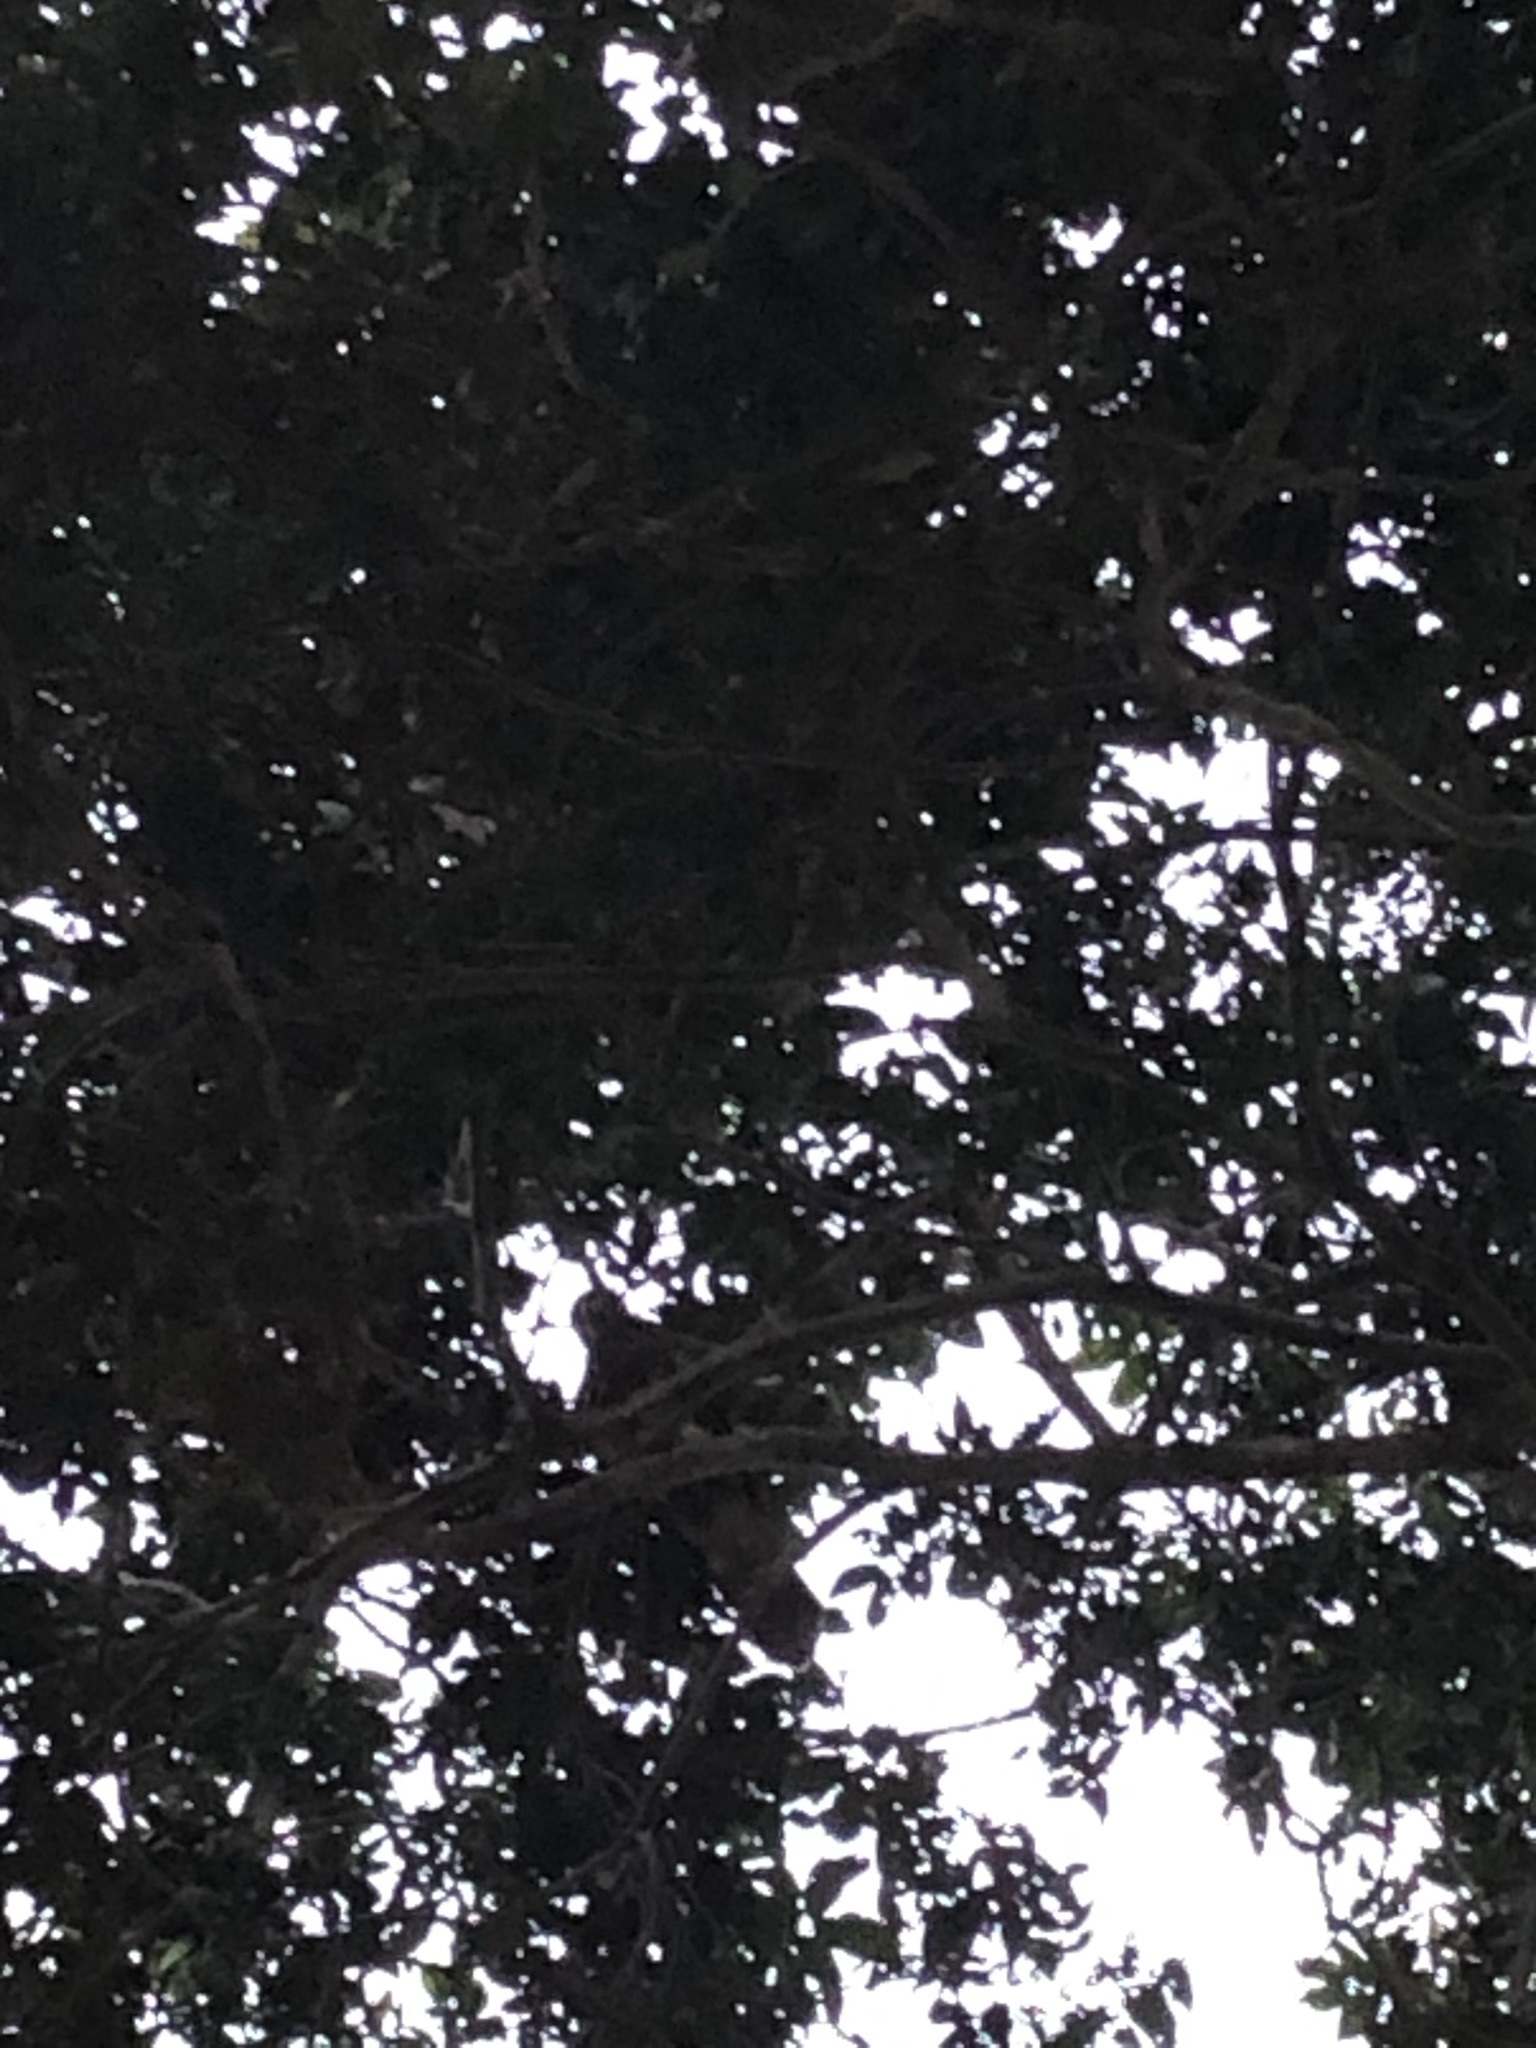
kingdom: Animalia
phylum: Chordata
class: Aves
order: Accipitriformes
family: Accipitridae
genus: Parabuteo
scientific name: Parabuteo unicinctus
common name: Harris's hawk
